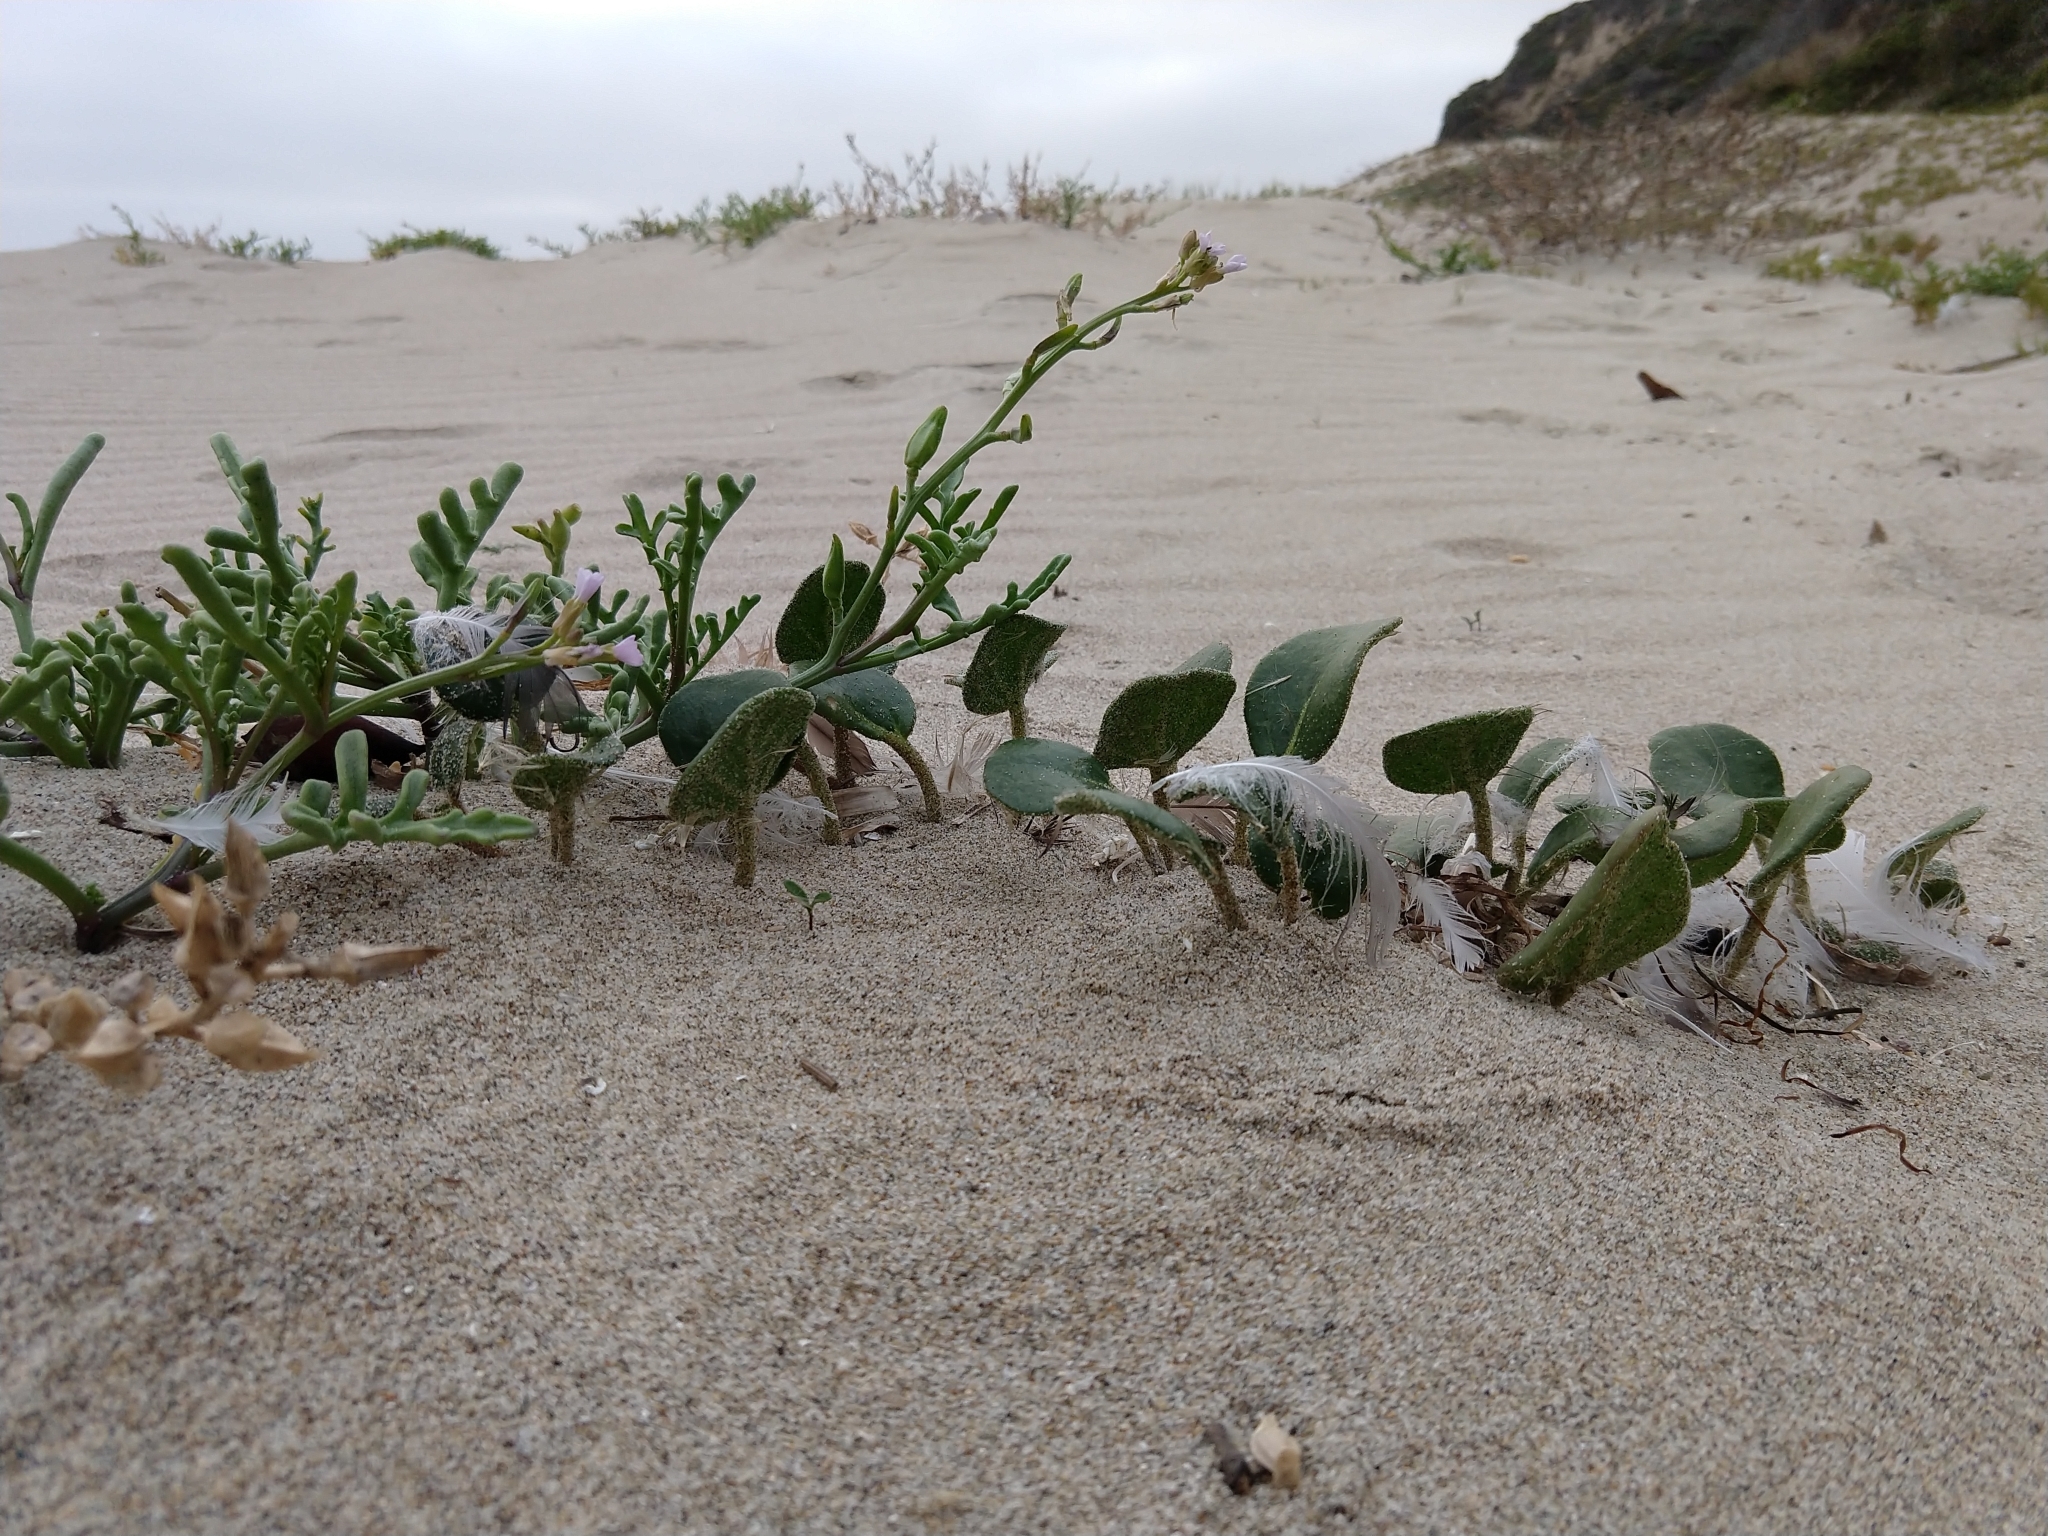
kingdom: Plantae
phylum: Tracheophyta
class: Magnoliopsida
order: Caryophyllales
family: Nyctaginaceae
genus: Abronia
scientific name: Abronia latifolia
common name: Yellow sand-verbena
